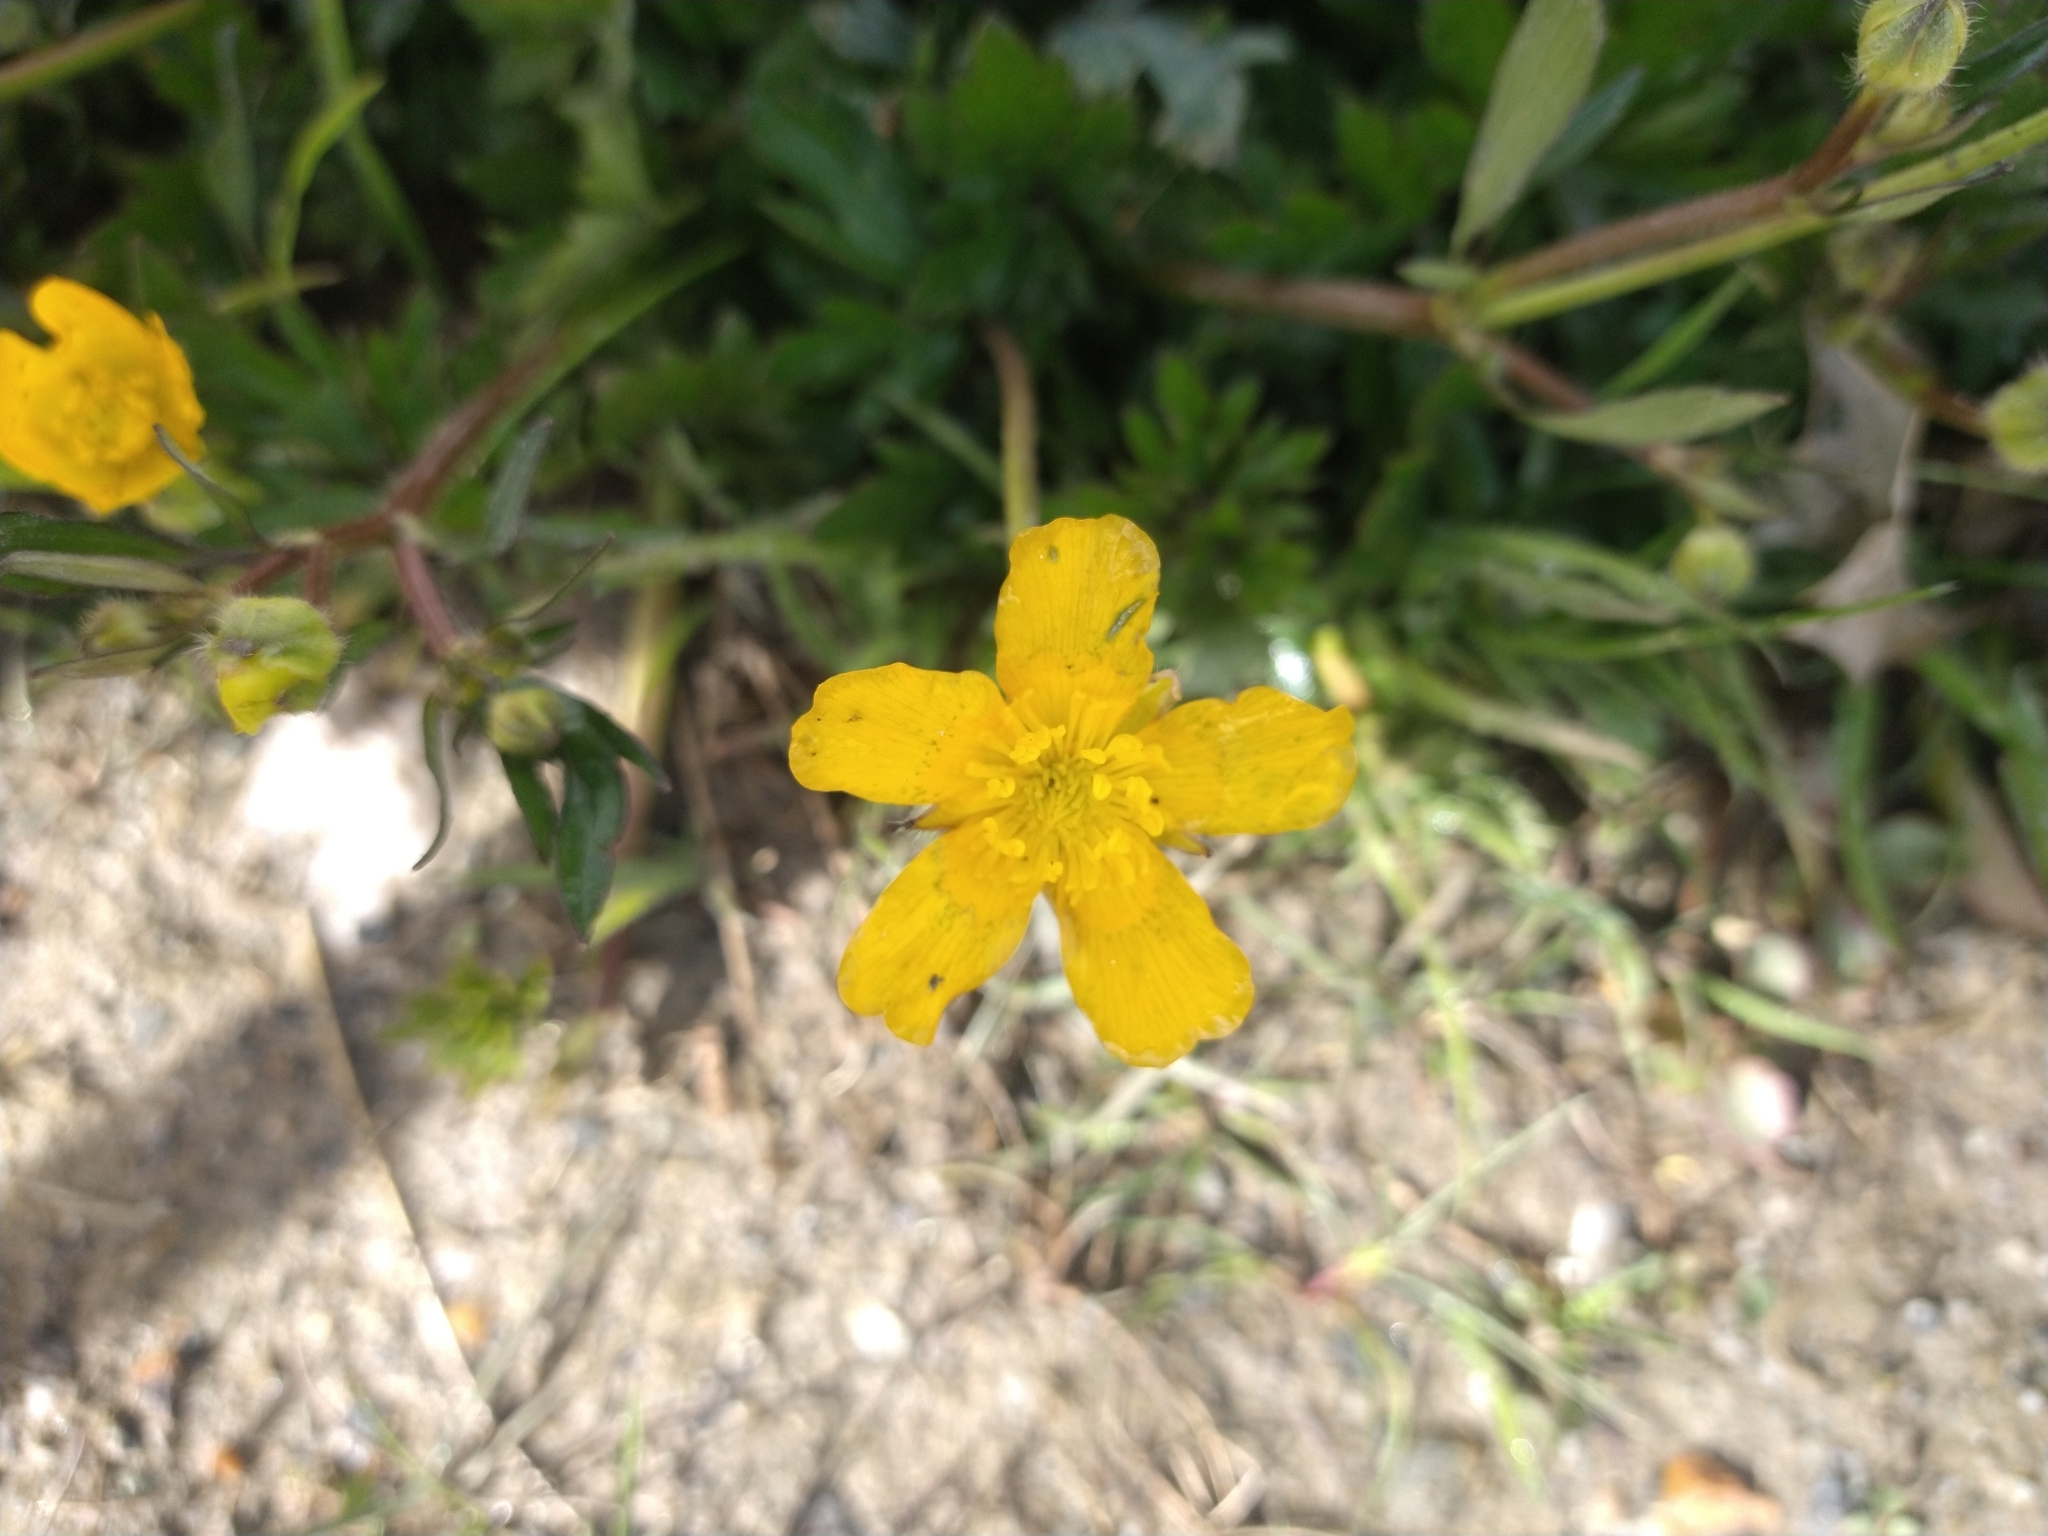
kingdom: Plantae
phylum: Tracheophyta
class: Magnoliopsida
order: Ranunculales
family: Ranunculaceae
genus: Ranunculus
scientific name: Ranunculus repens
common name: Creeping buttercup
